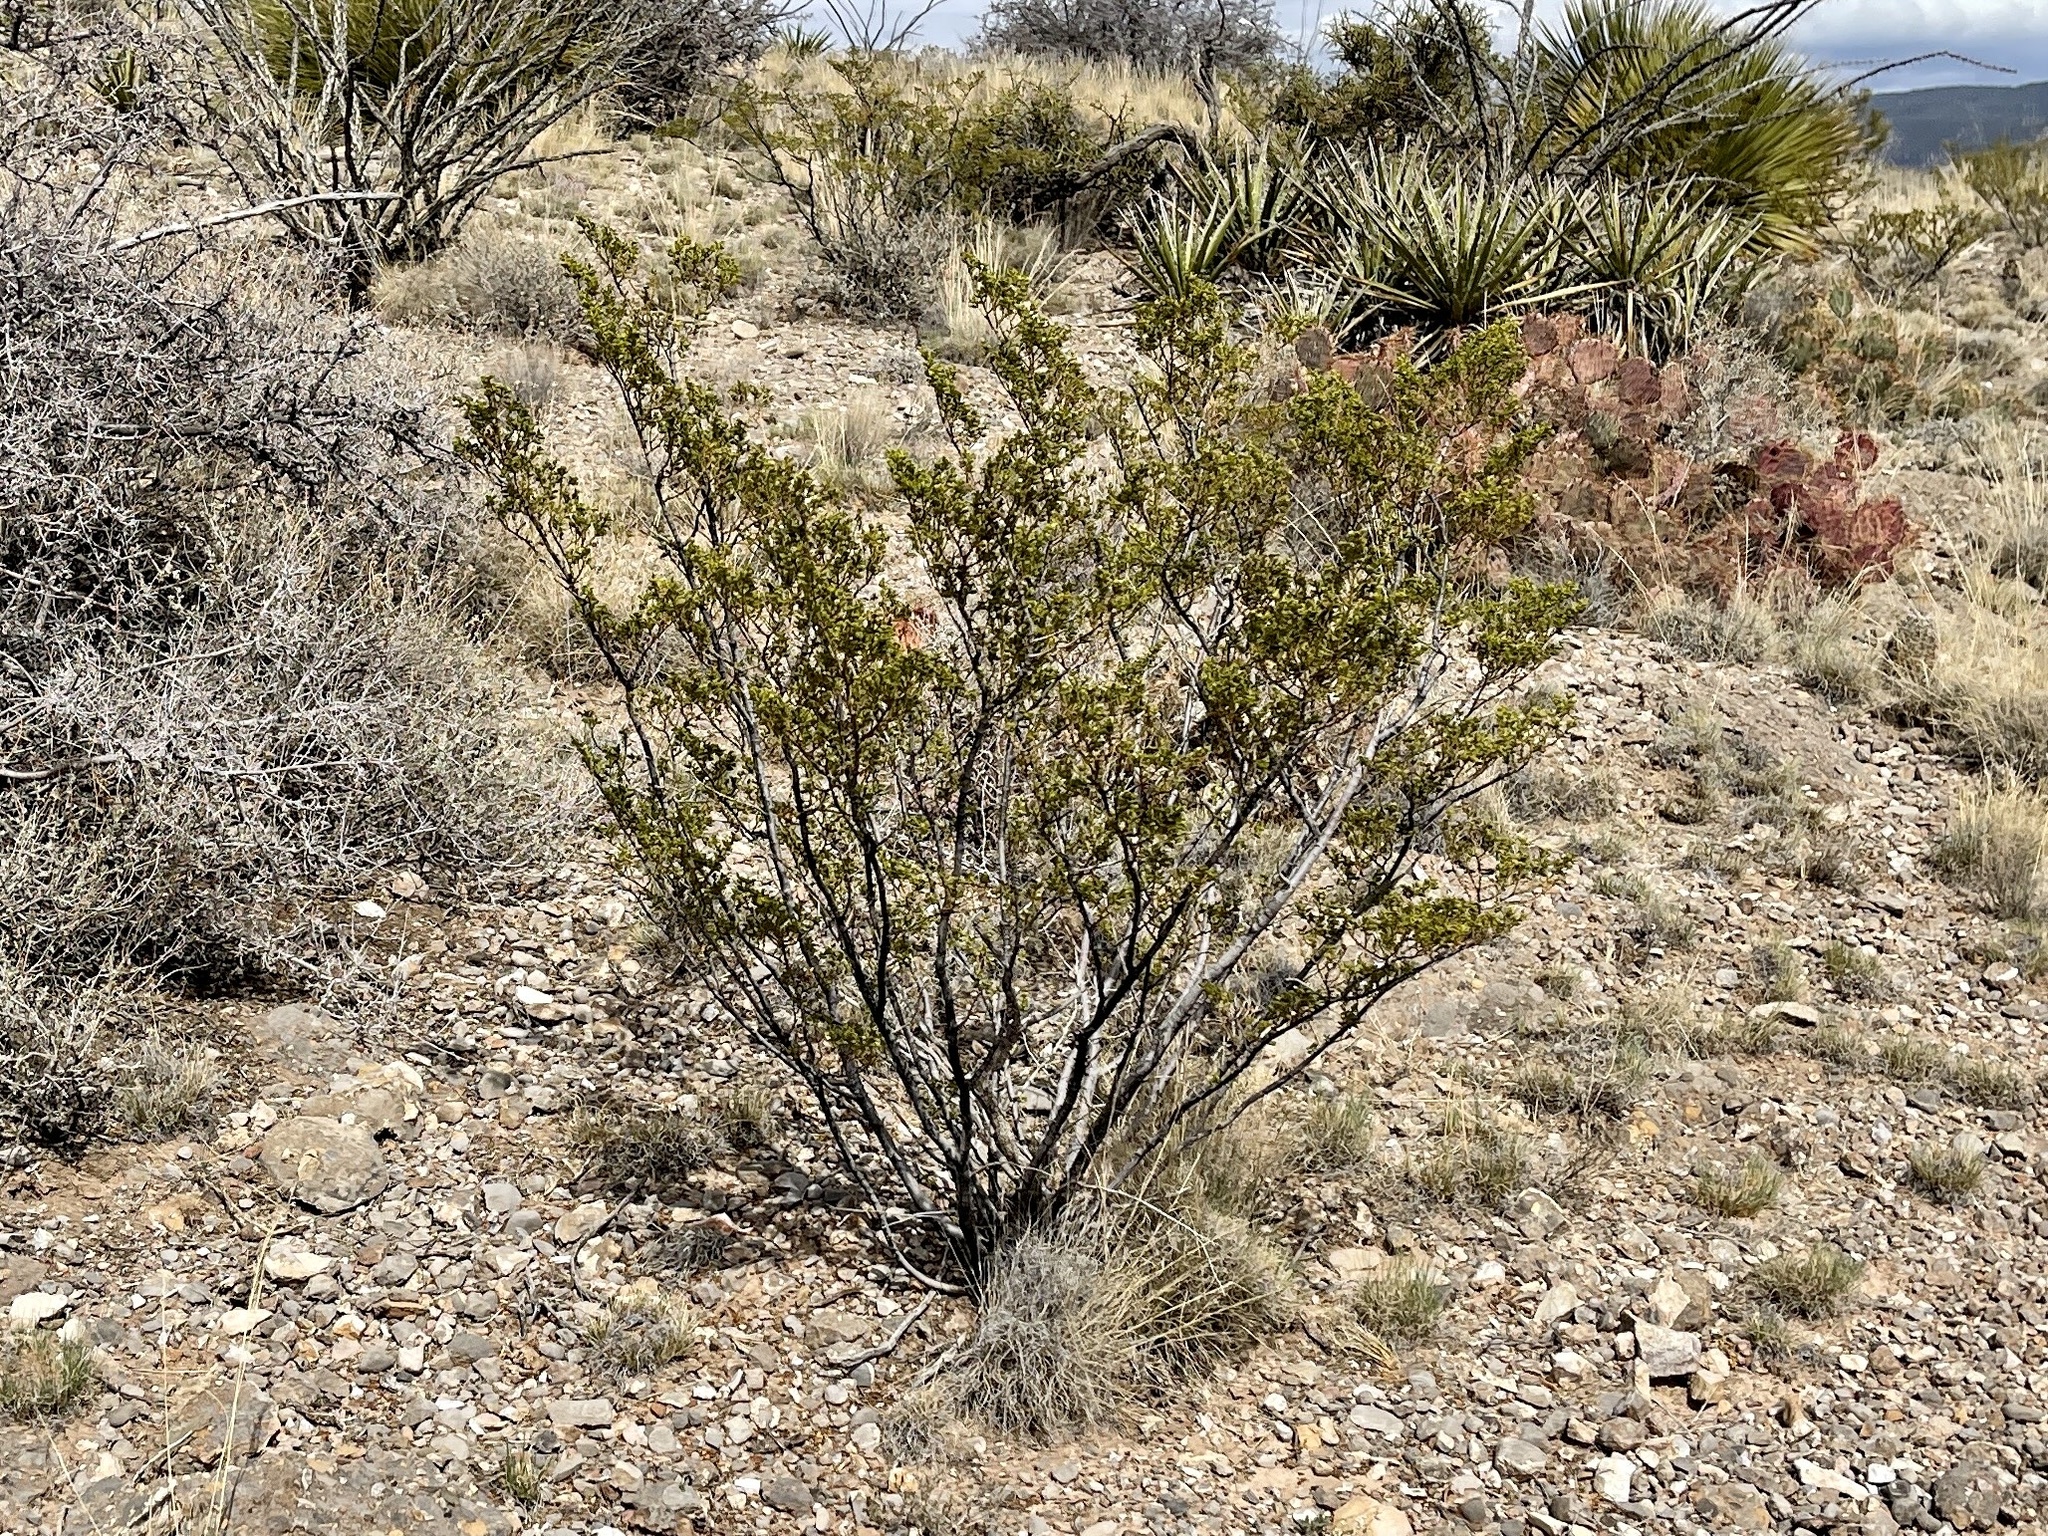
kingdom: Plantae
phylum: Tracheophyta
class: Magnoliopsida
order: Zygophyllales
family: Zygophyllaceae
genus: Larrea
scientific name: Larrea tridentata
